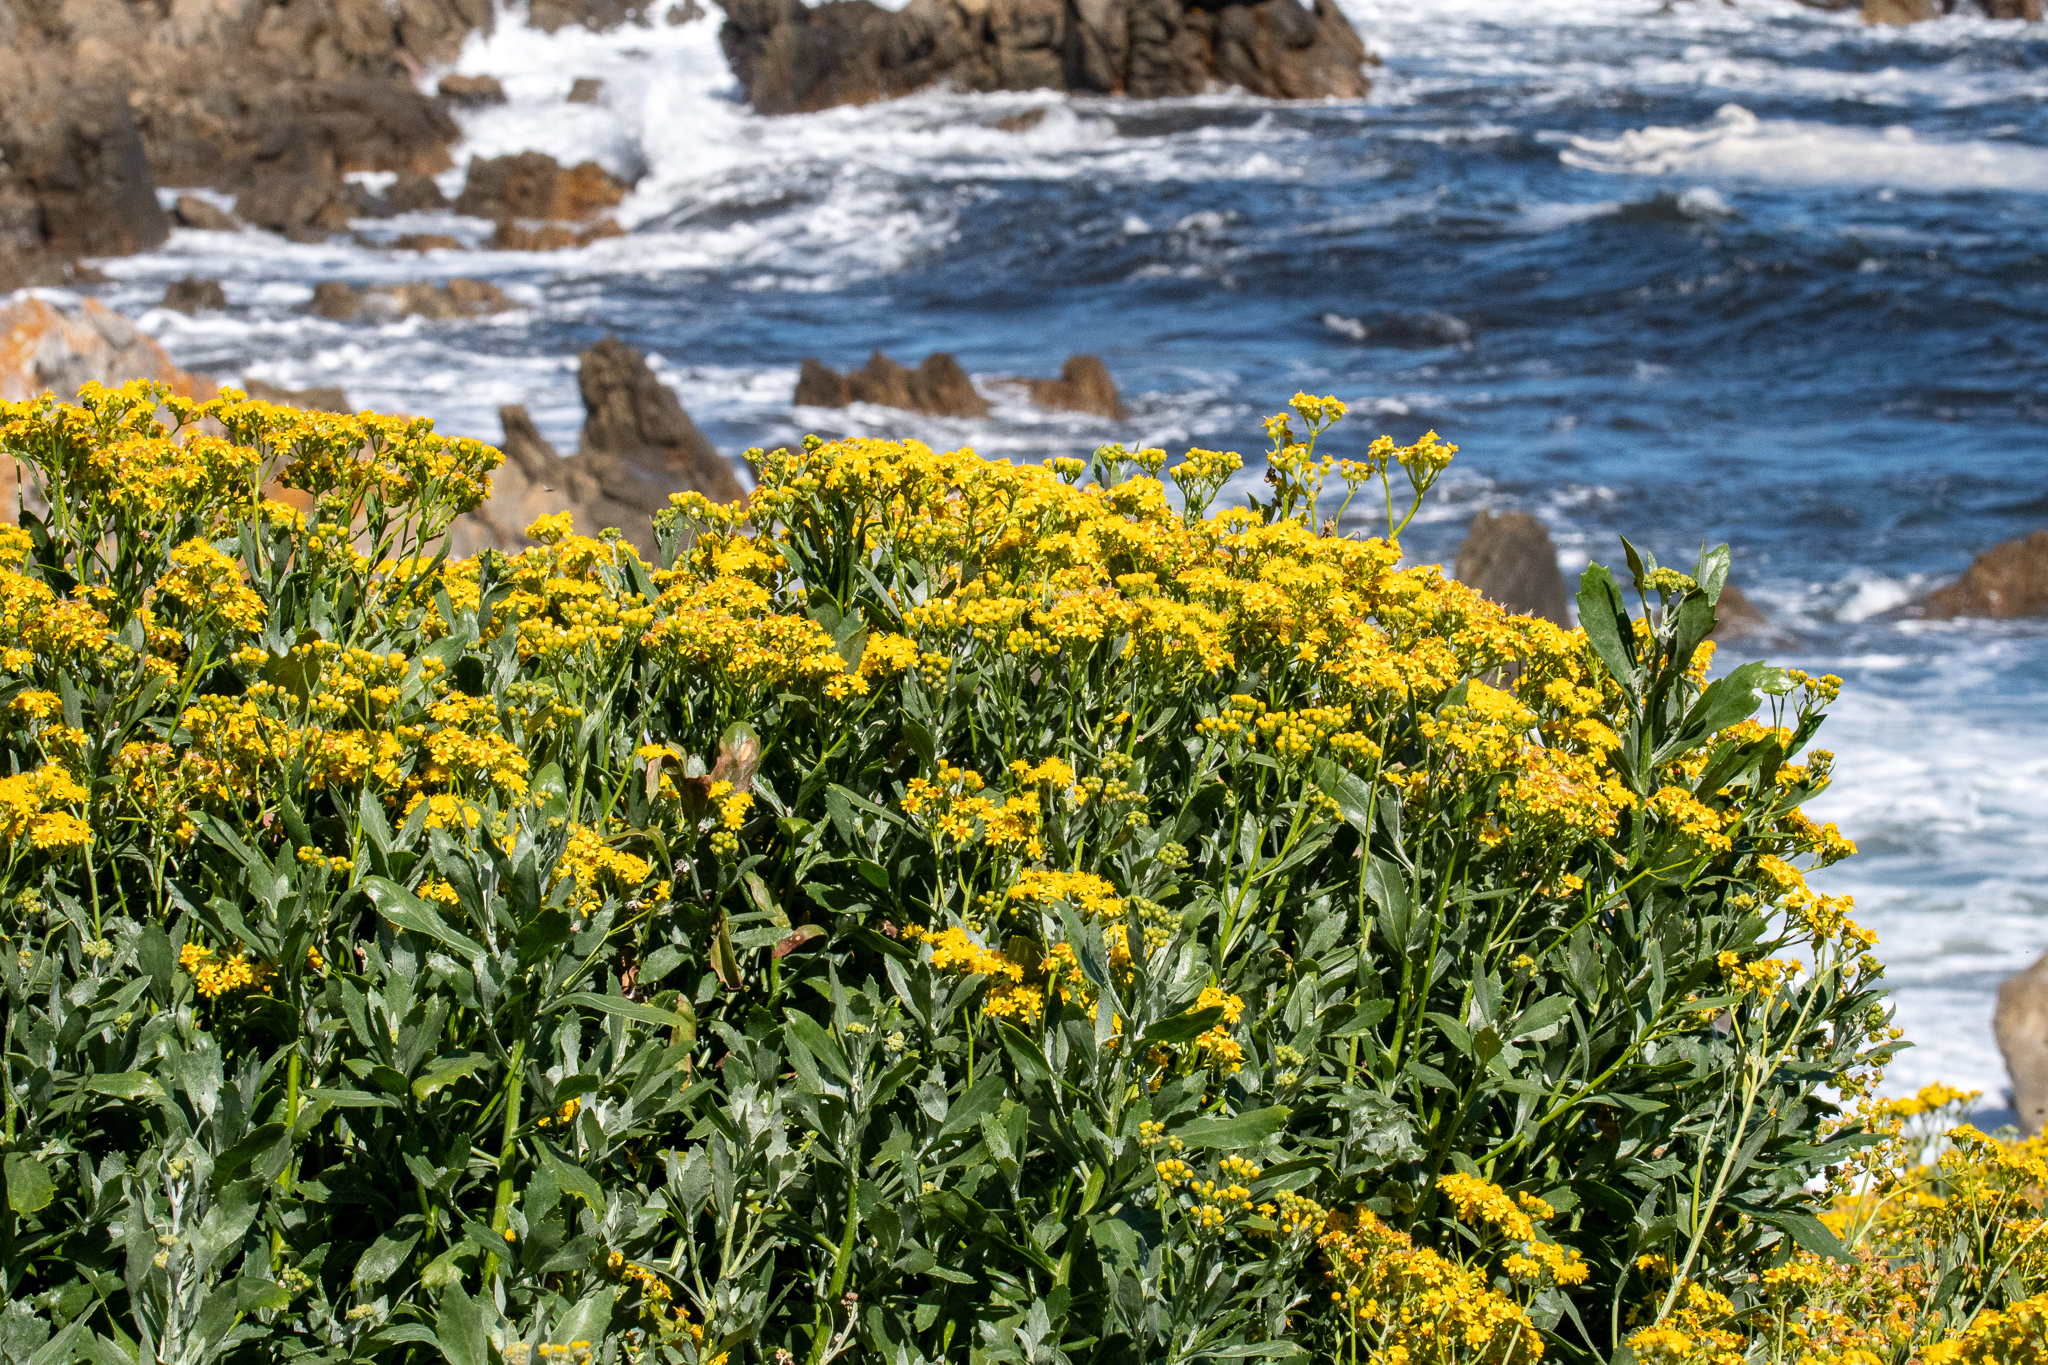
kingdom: Plantae
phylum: Tracheophyta
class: Magnoliopsida
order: Asterales
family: Asteraceae
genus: Senecio
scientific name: Senecio halimifolius
